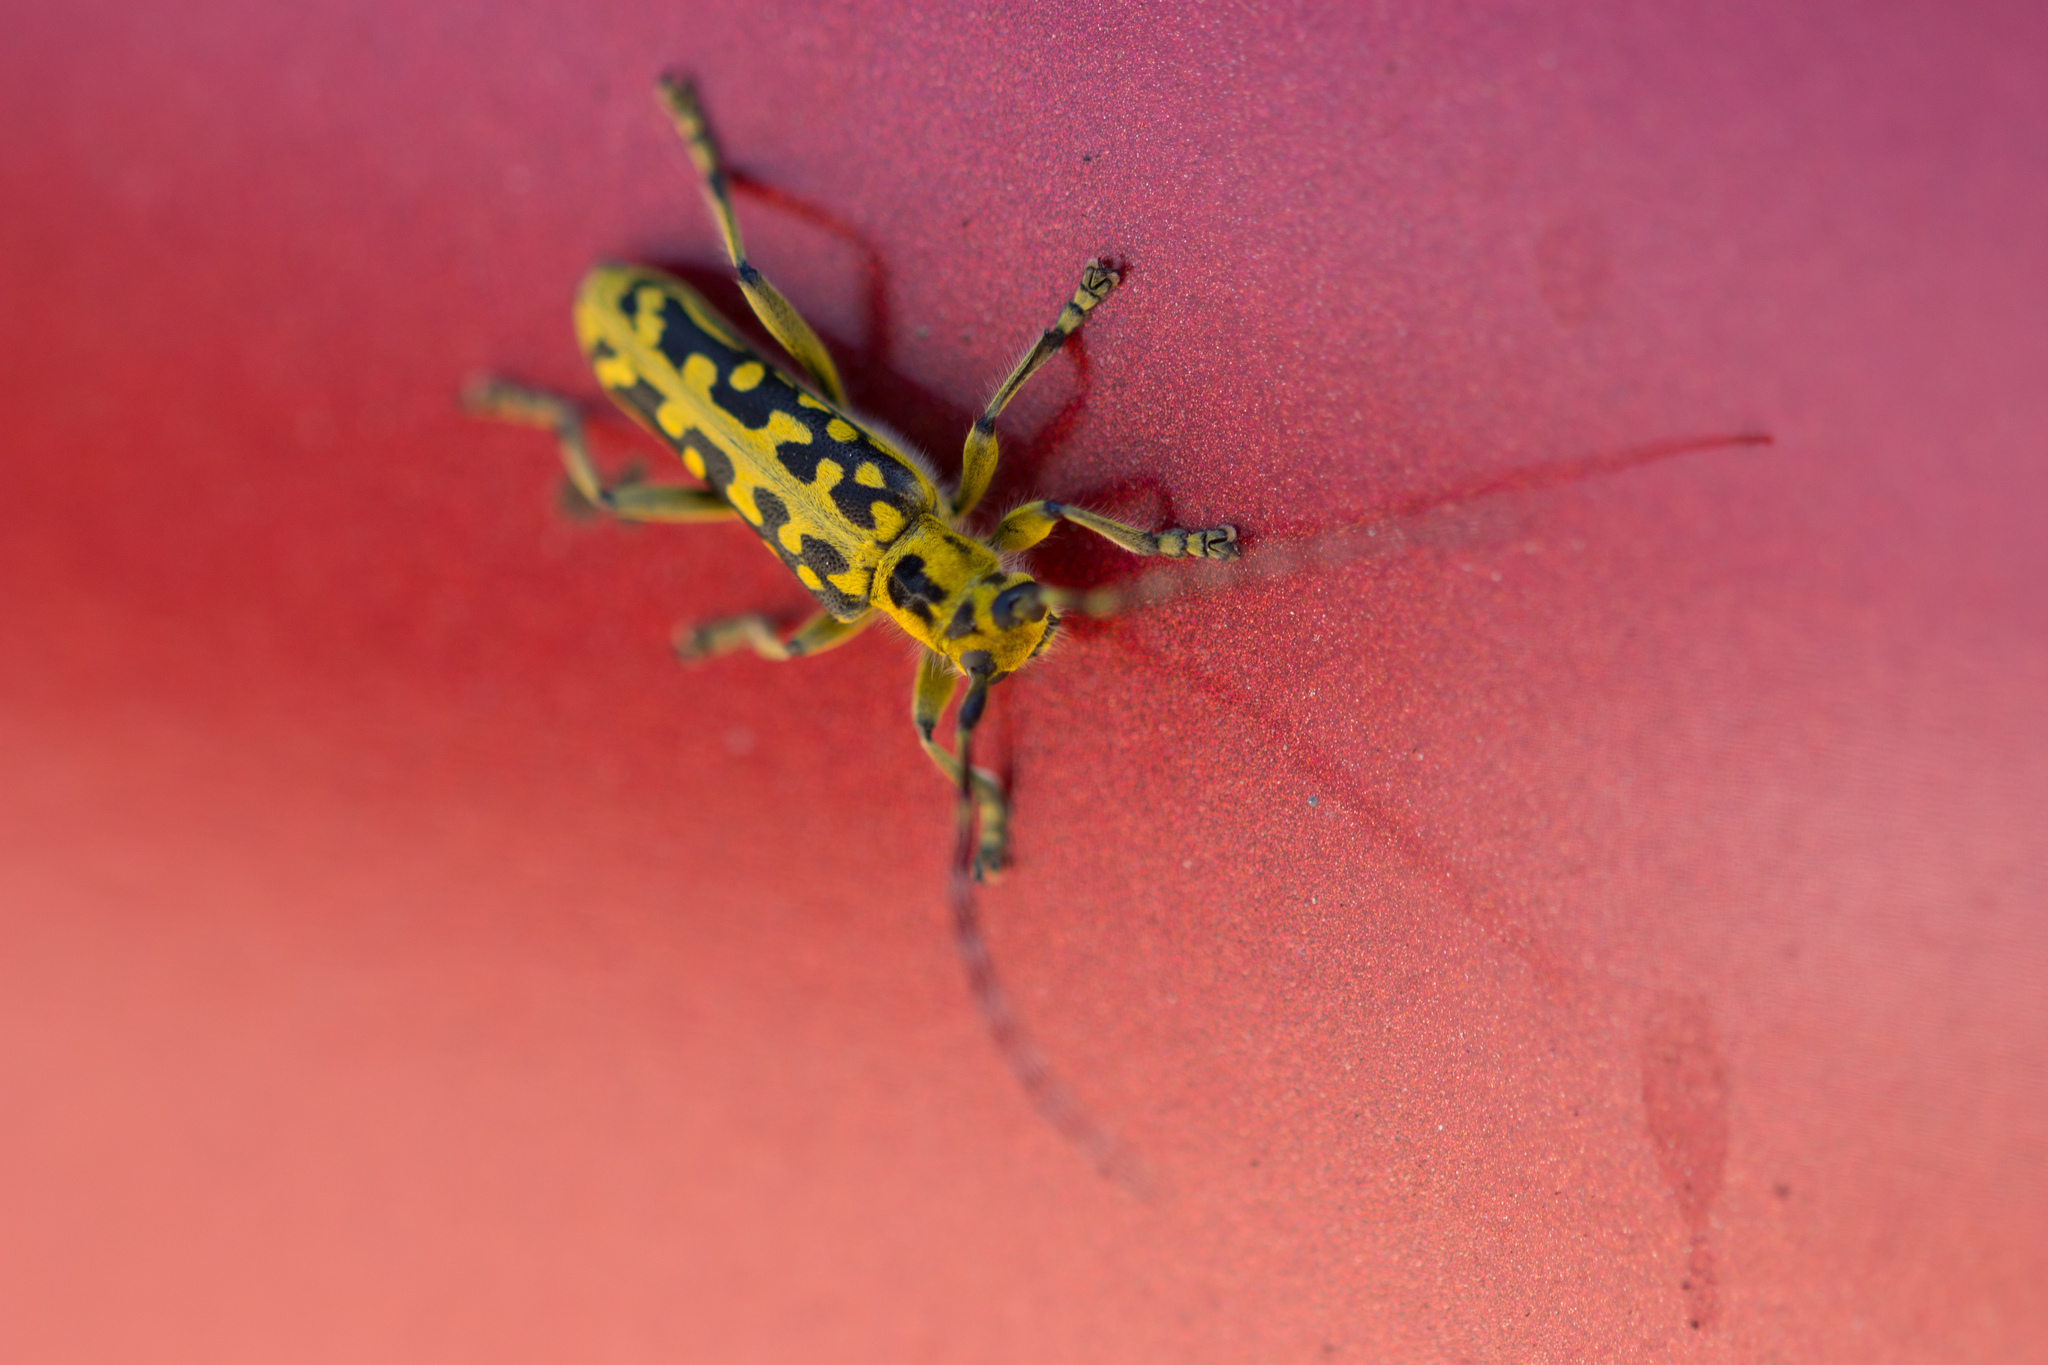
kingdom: Animalia
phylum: Arthropoda
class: Insecta
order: Coleoptera
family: Cerambycidae
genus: Saperda
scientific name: Saperda scalaris
